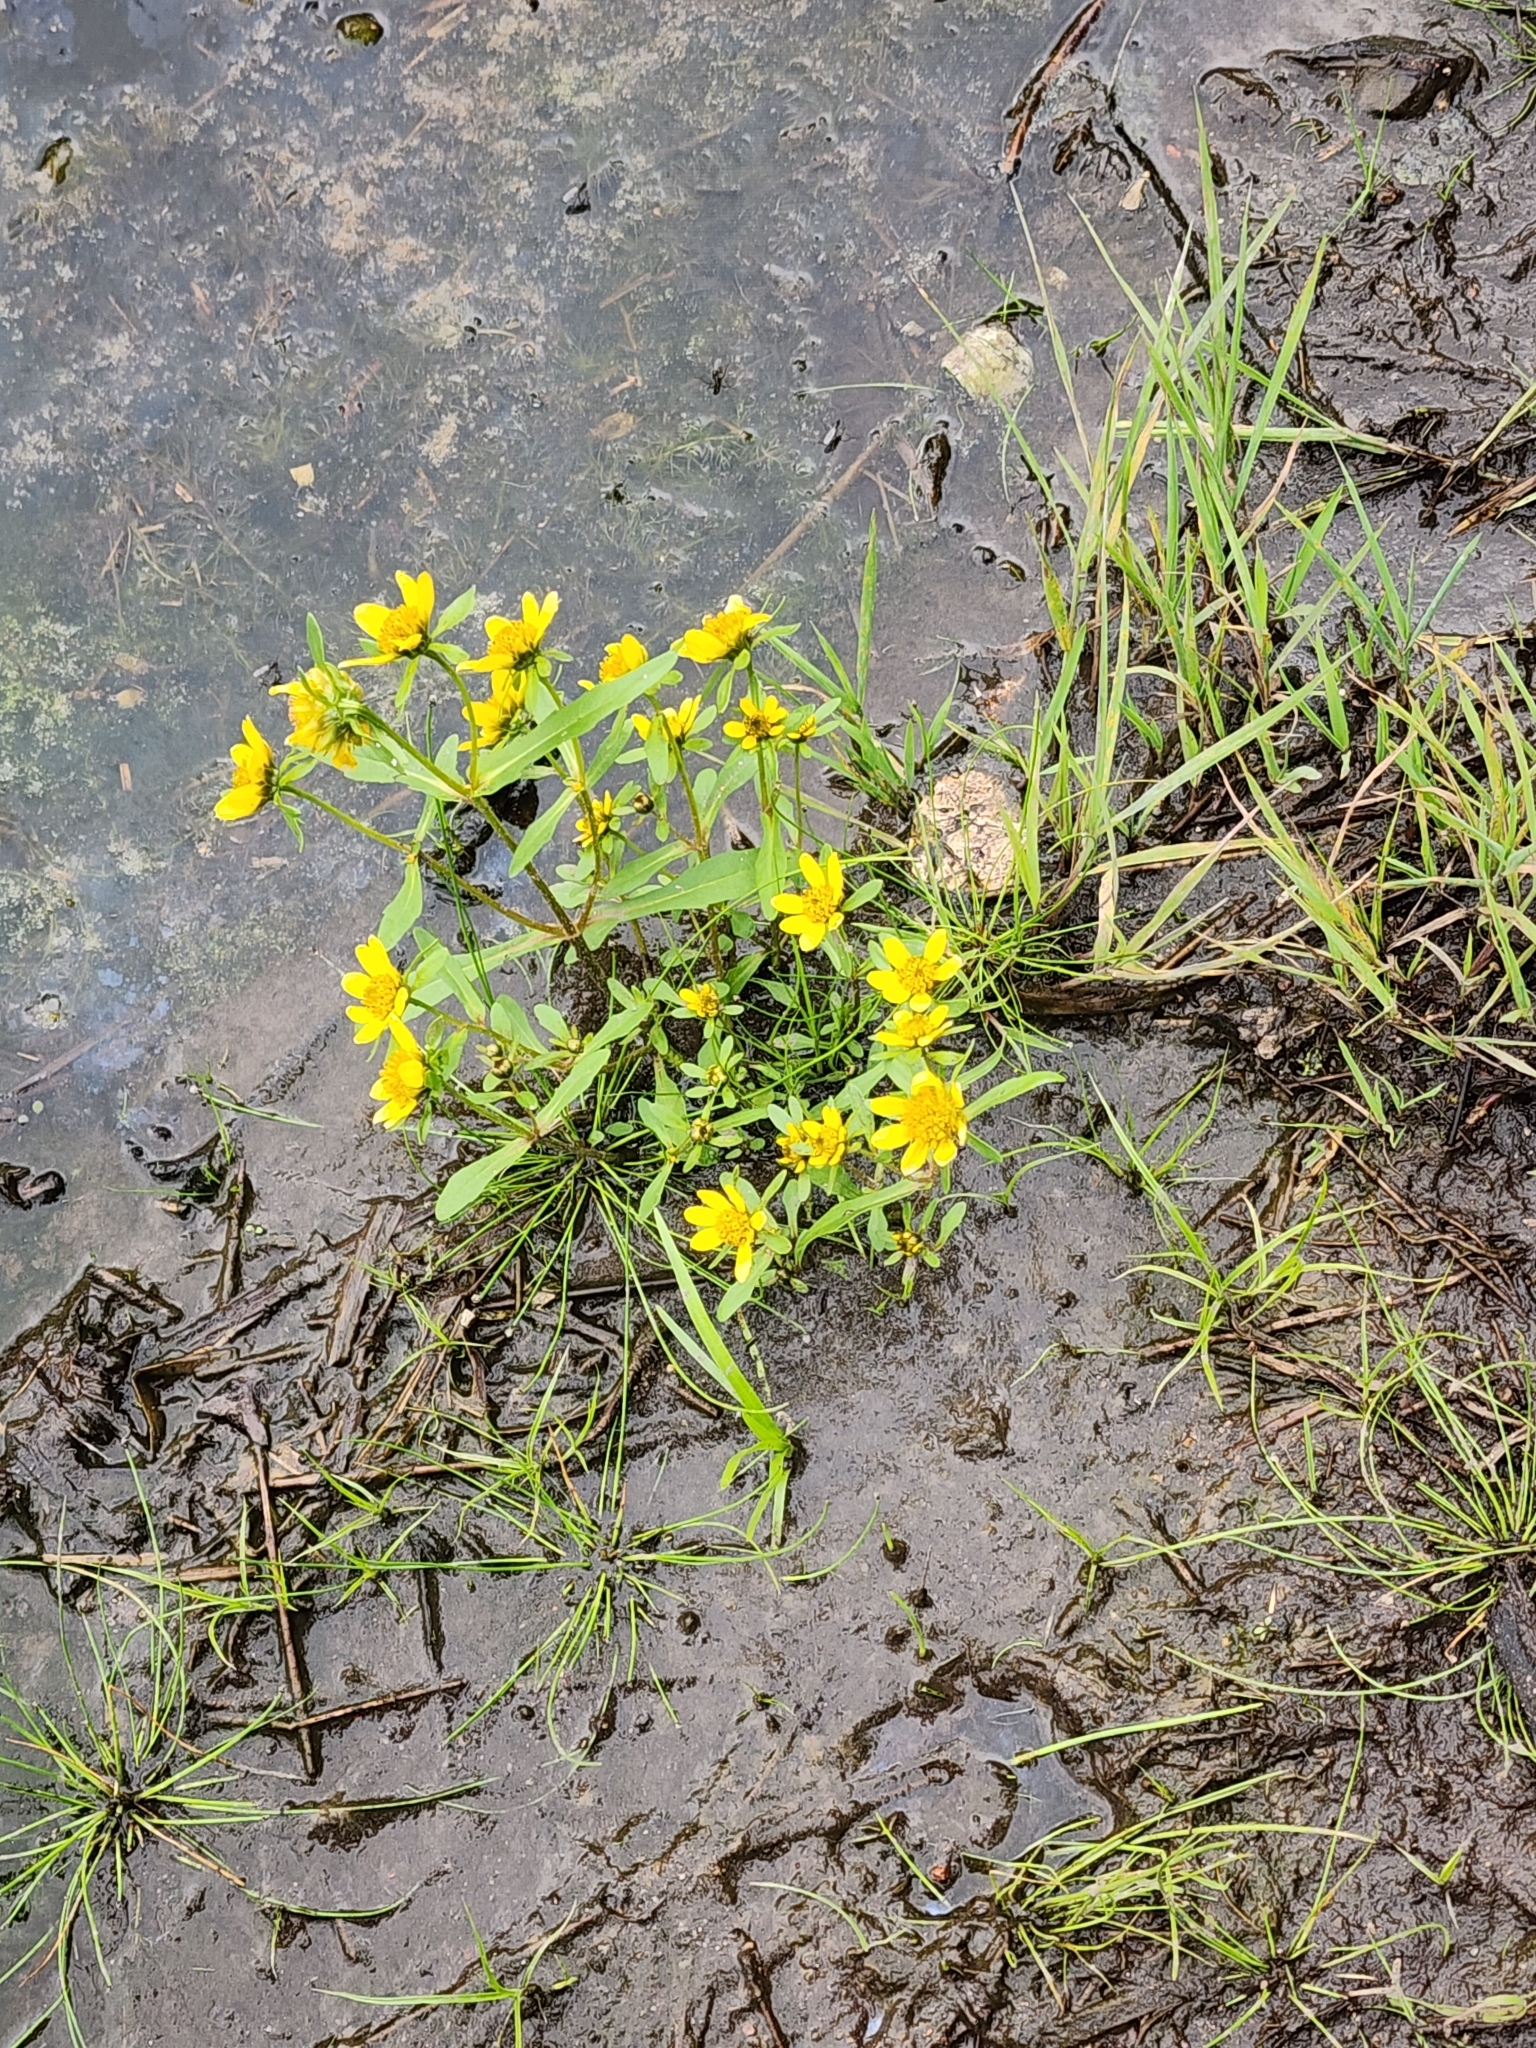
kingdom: Plantae
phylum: Tracheophyta
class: Magnoliopsida
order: Asterales
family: Asteraceae
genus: Bidens
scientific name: Bidens cernua
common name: Nodding bur-marigold
